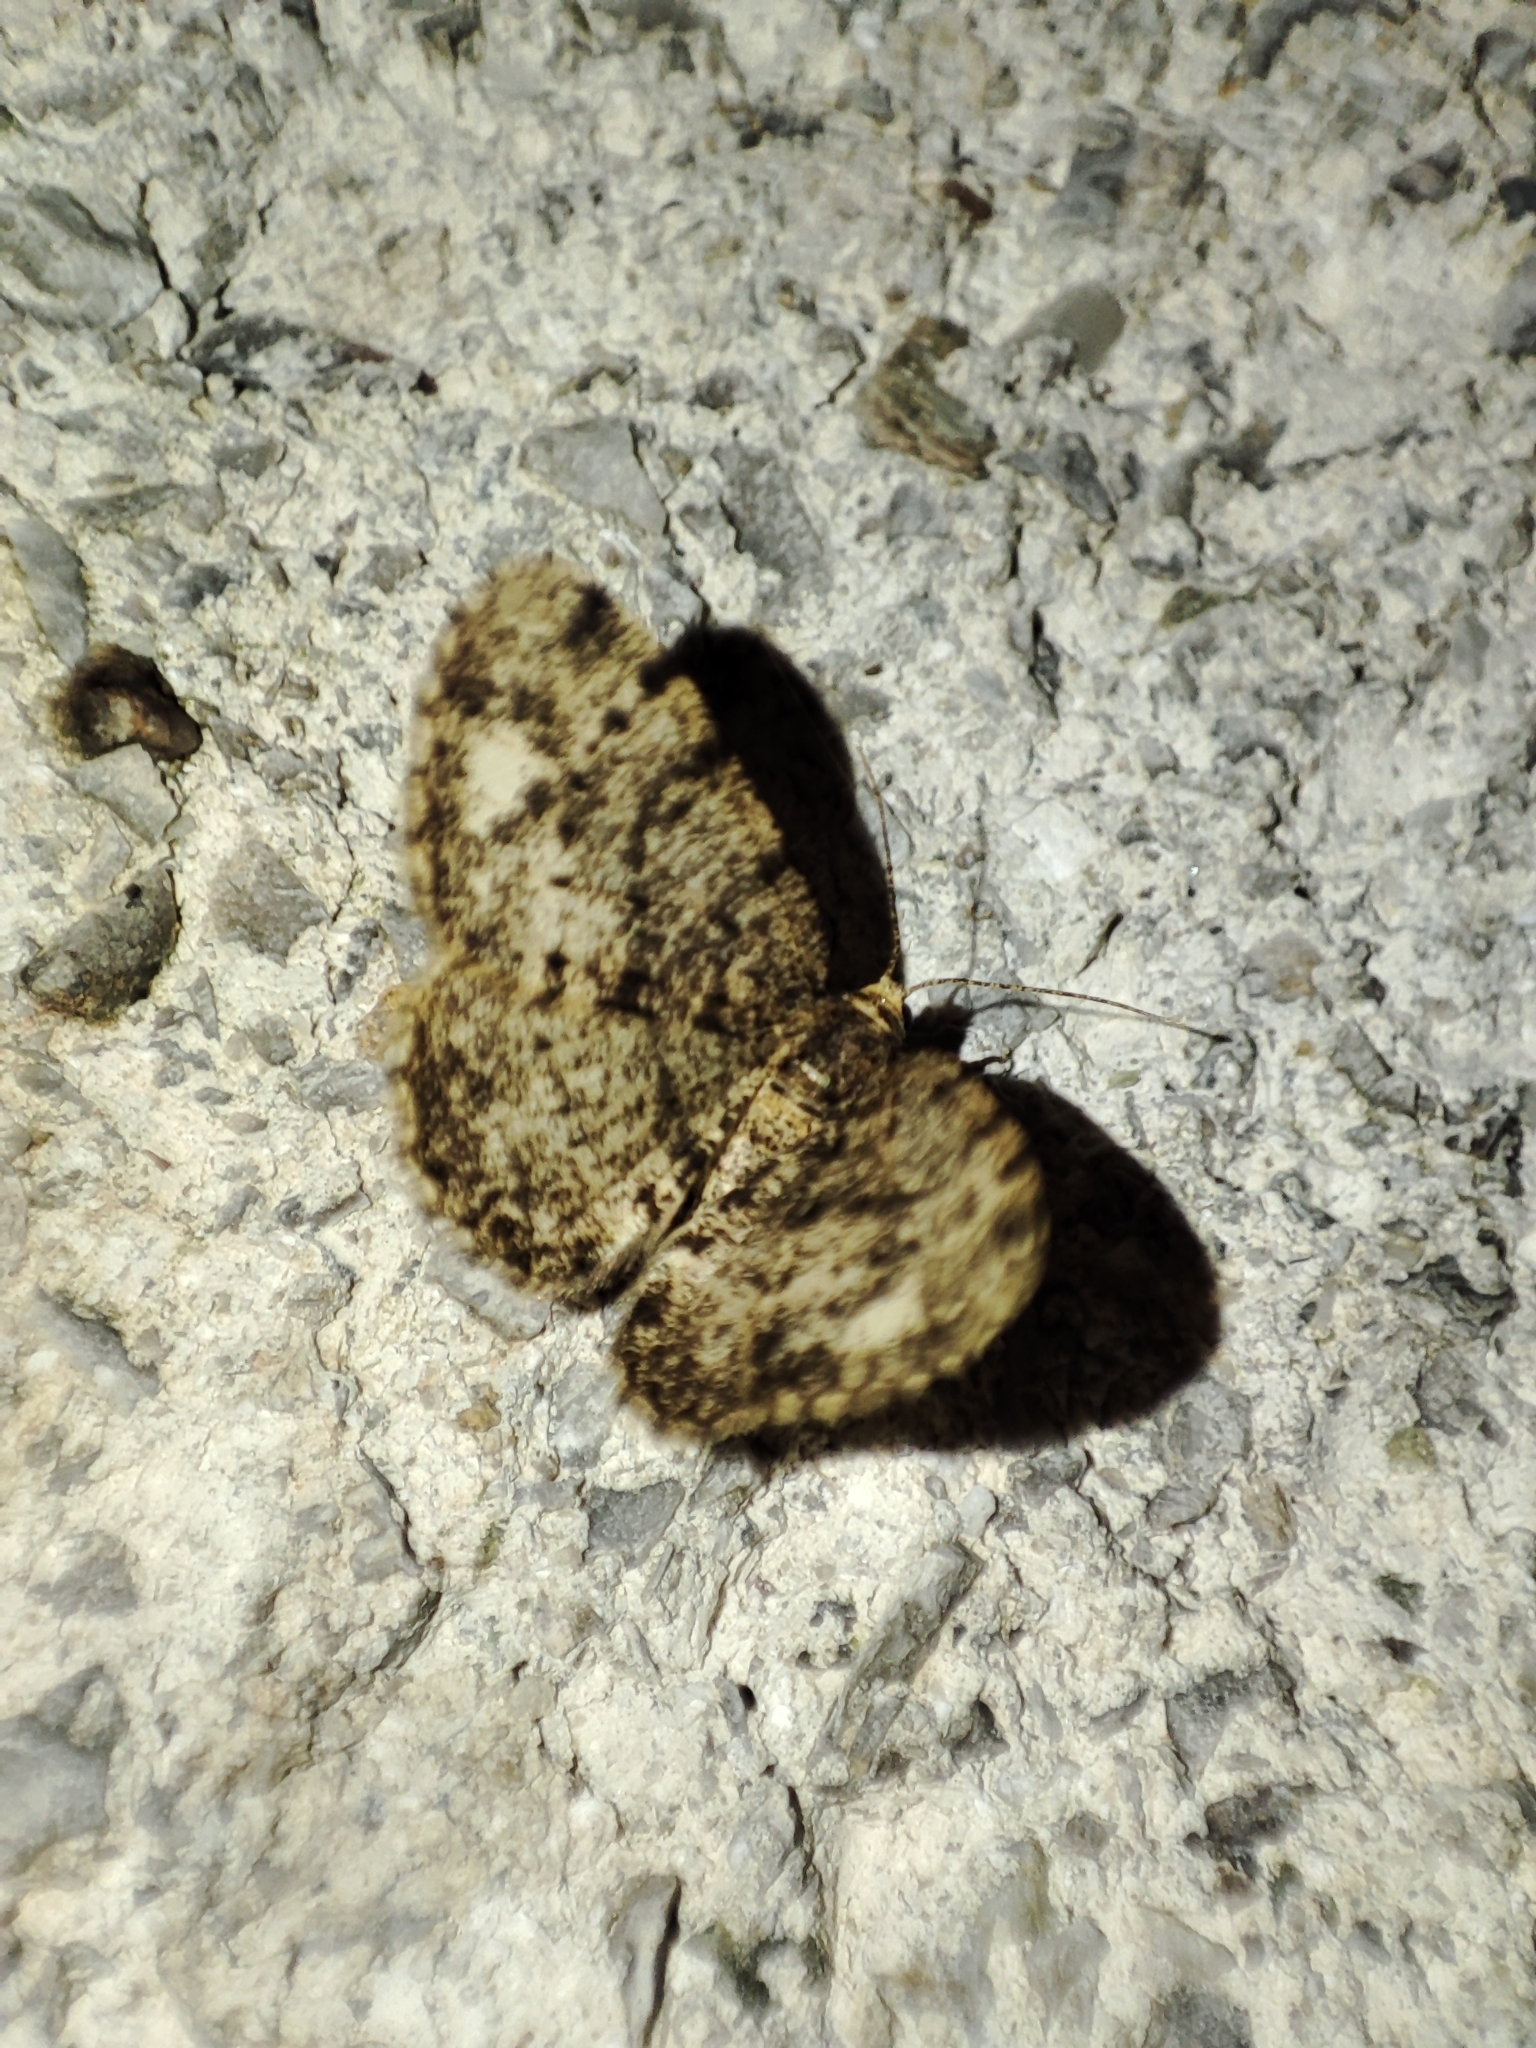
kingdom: Animalia
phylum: Arthropoda
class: Insecta
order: Lepidoptera
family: Geometridae
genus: Parectropis
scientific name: Parectropis similaria
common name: Brindled white-spot
